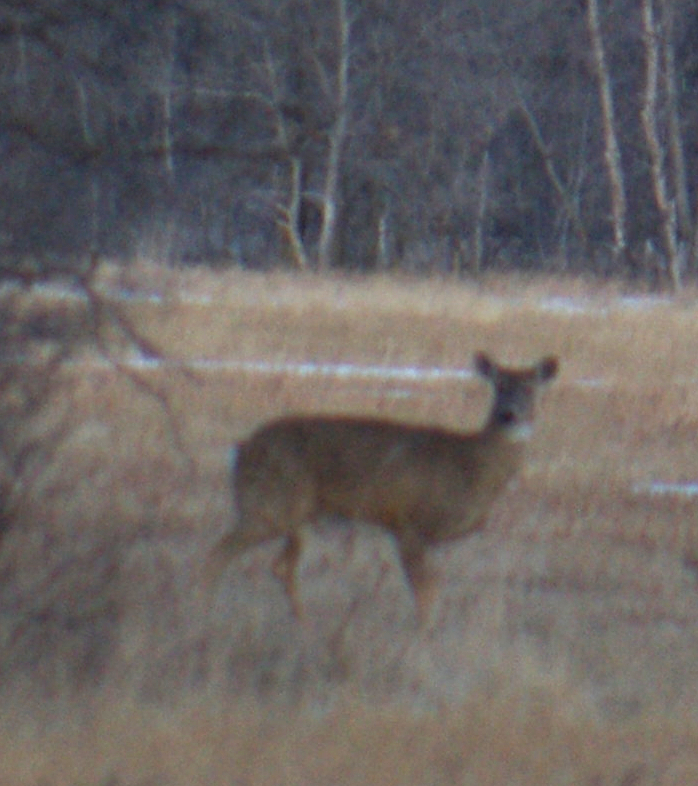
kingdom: Animalia
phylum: Chordata
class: Mammalia
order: Artiodactyla
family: Cervidae
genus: Odocoileus
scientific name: Odocoileus virginianus
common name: White-tailed deer
